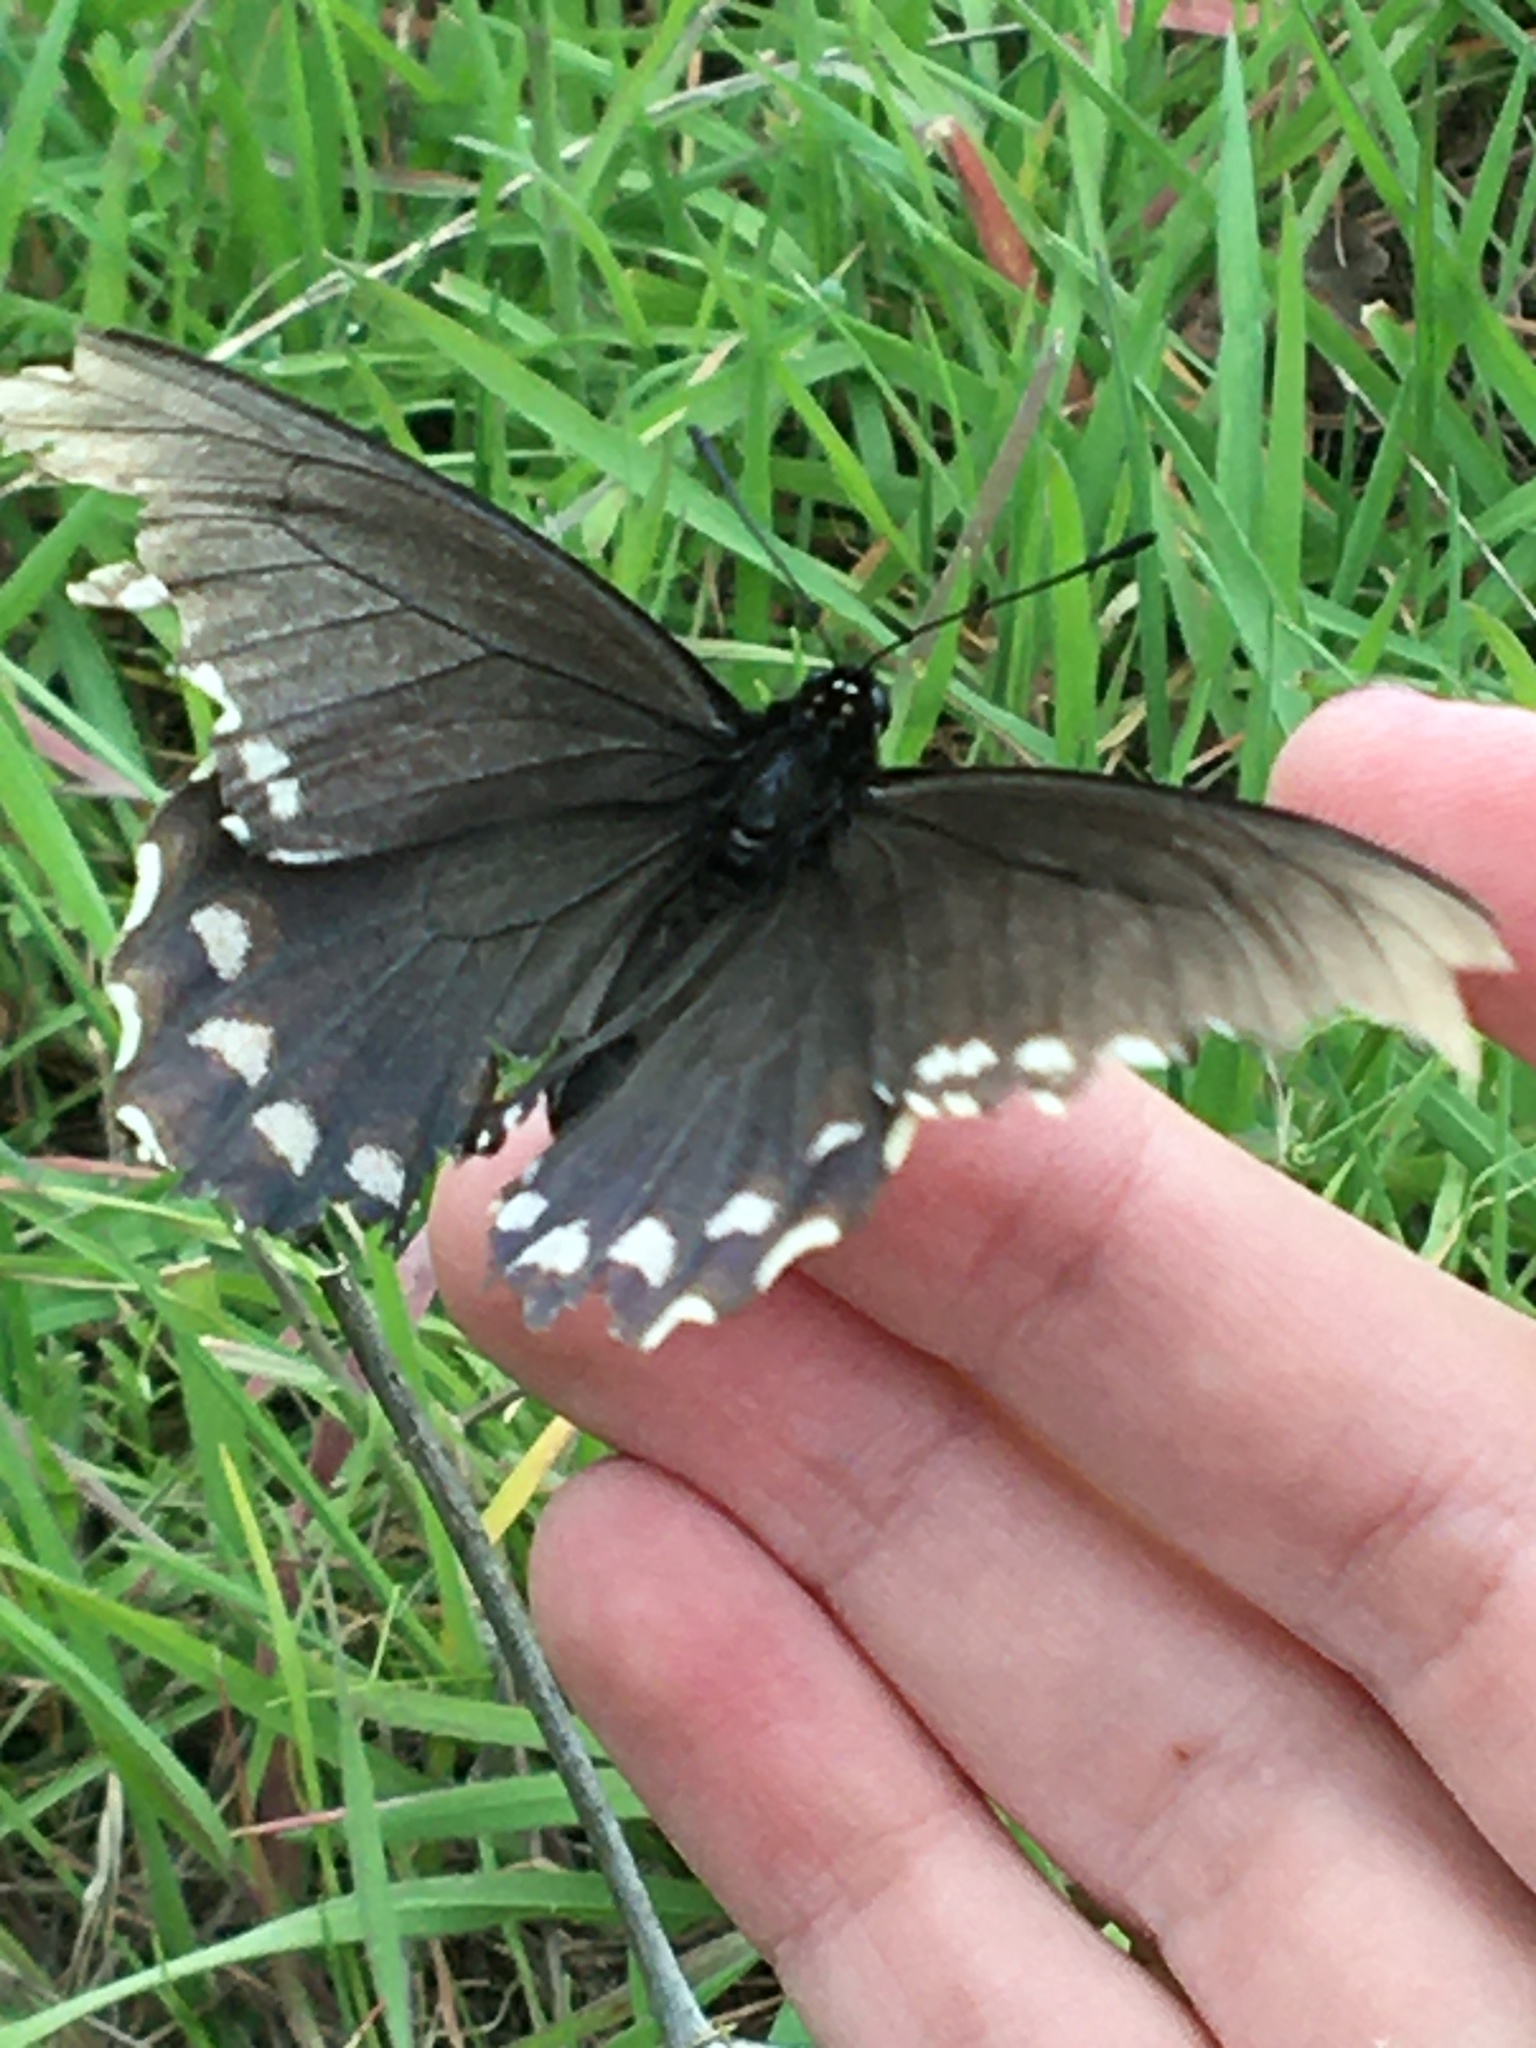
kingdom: Animalia
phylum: Arthropoda
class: Insecta
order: Lepidoptera
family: Papilionidae
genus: Battus
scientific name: Battus philenor
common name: Pipevine swallowtail
